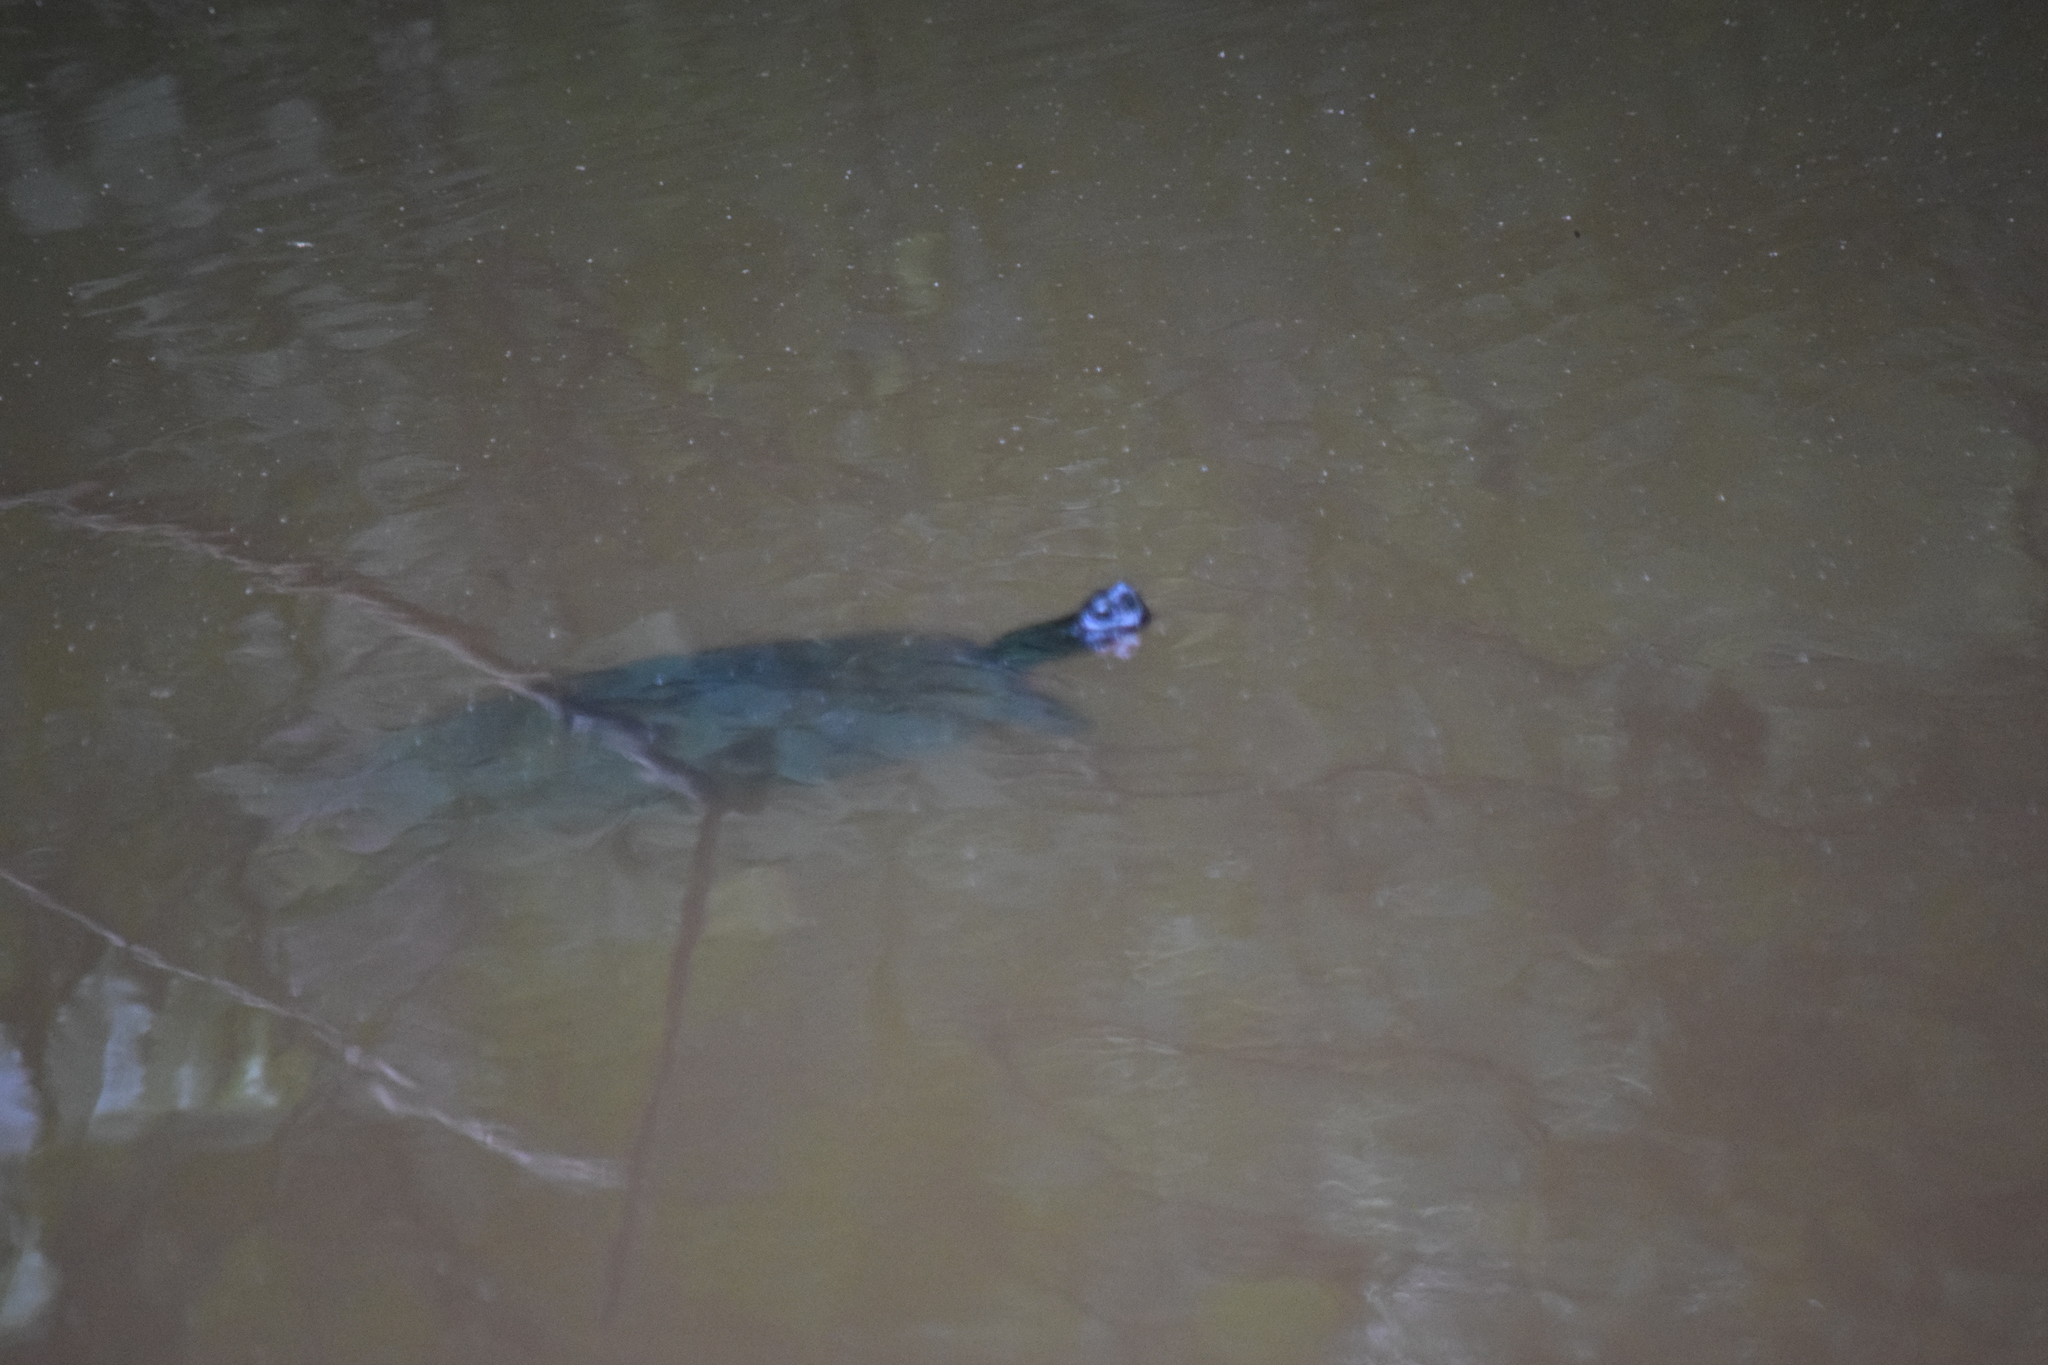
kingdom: Animalia
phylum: Chordata
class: Testudines
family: Emydidae
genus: Pseudemys
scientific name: Pseudemys rubriventris
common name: American red-bellied turtle
